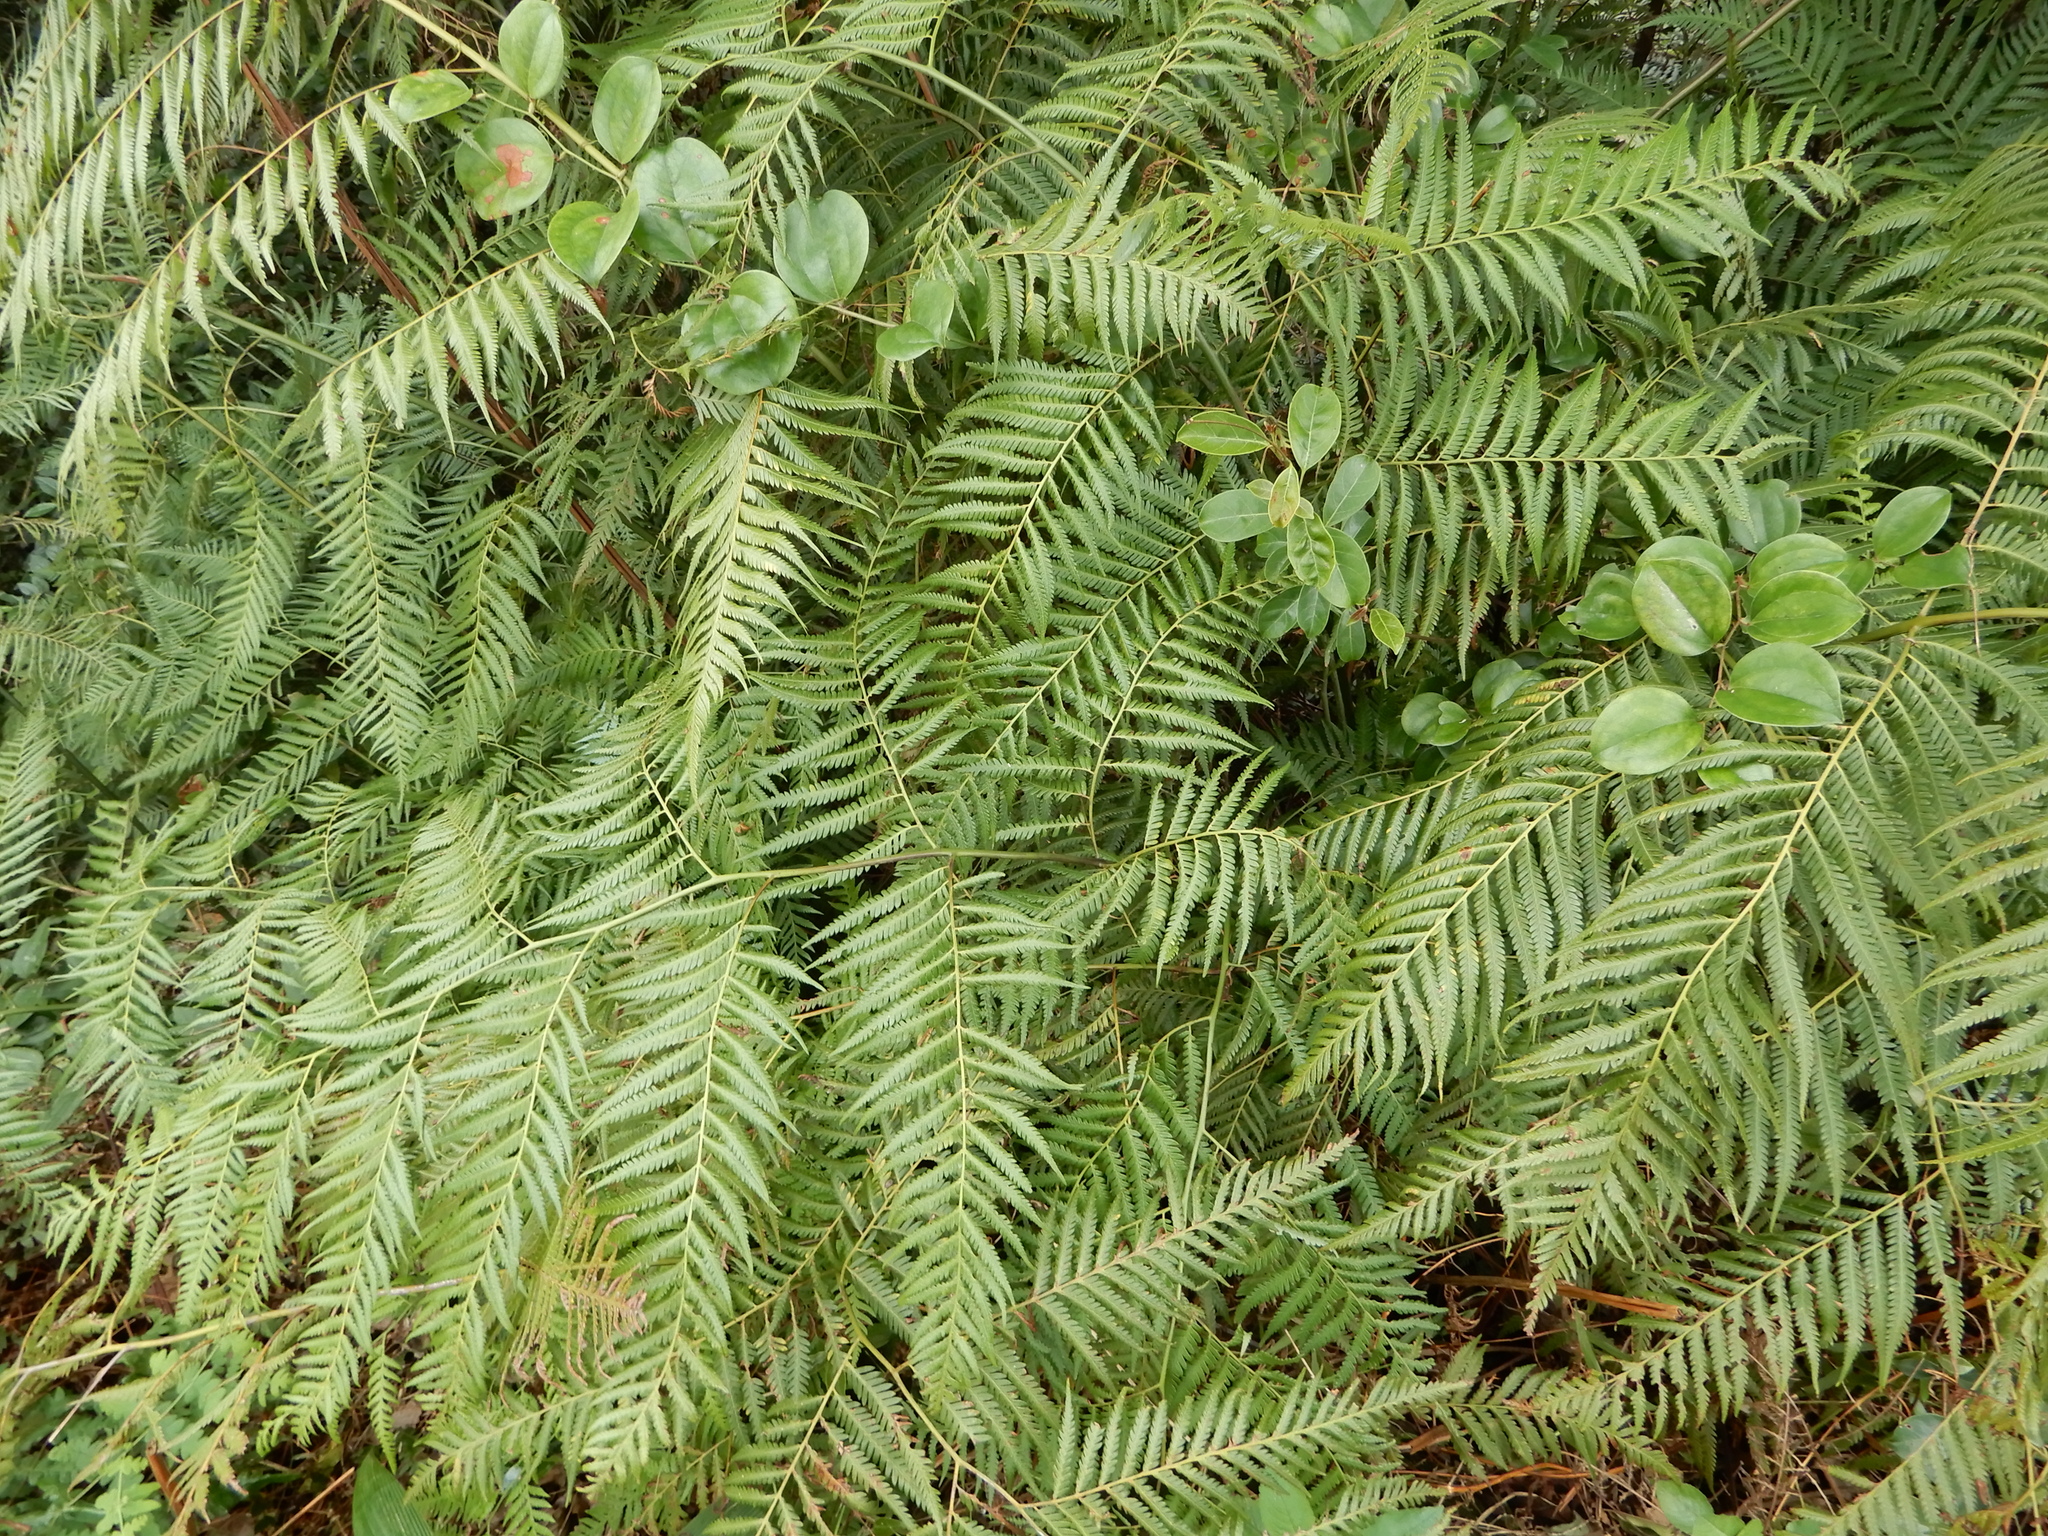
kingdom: Plantae
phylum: Tracheophyta
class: Polypodiopsida
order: Cyatheales
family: Cibotiaceae
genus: Cibotium
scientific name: Cibotium taiwanense
